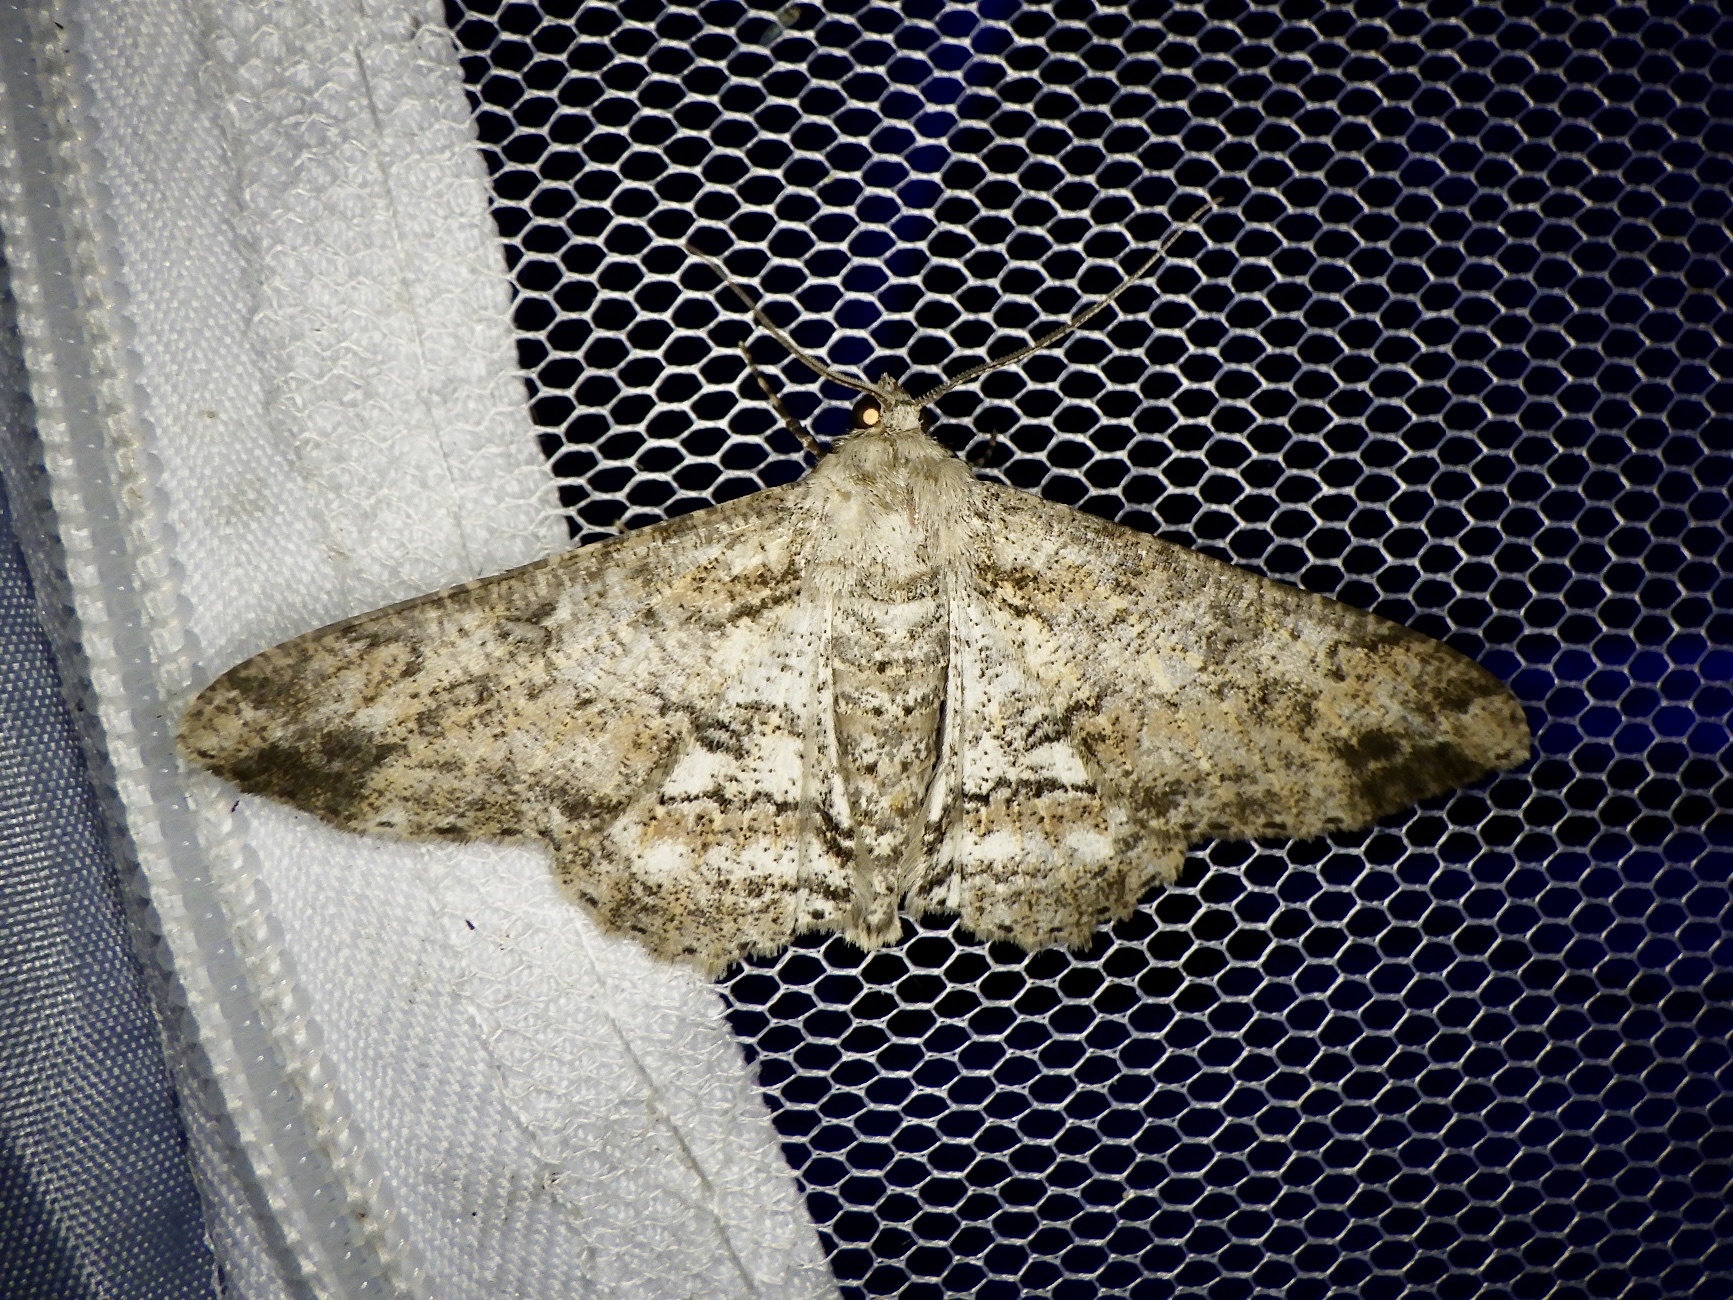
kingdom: Animalia
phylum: Arthropoda
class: Insecta
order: Lepidoptera
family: Geometridae
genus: Ascotis
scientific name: Ascotis selenaria
